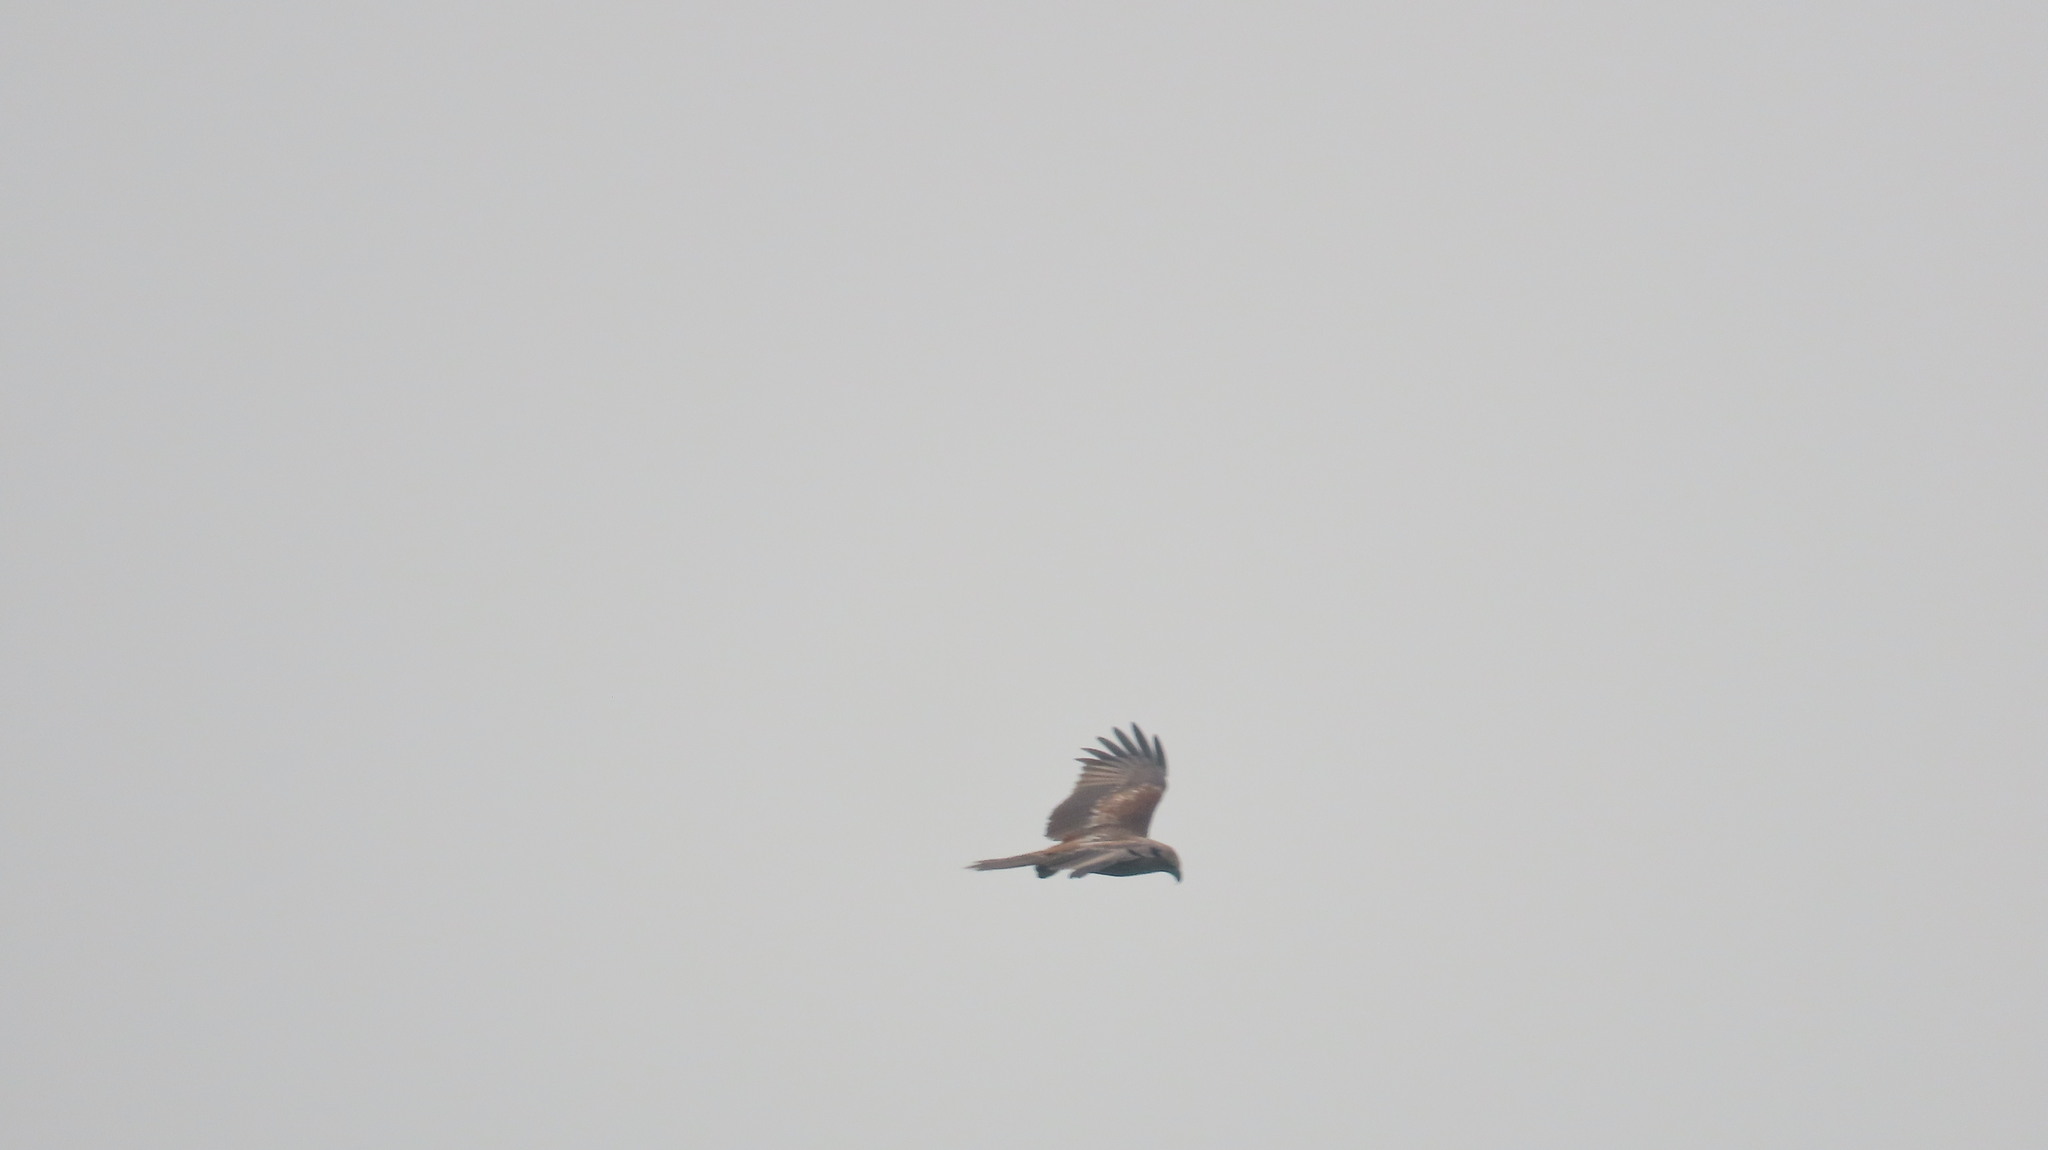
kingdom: Animalia
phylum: Chordata
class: Aves
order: Accipitriformes
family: Accipitridae
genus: Haliastur
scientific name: Haliastur indus
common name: Brahminy kite
